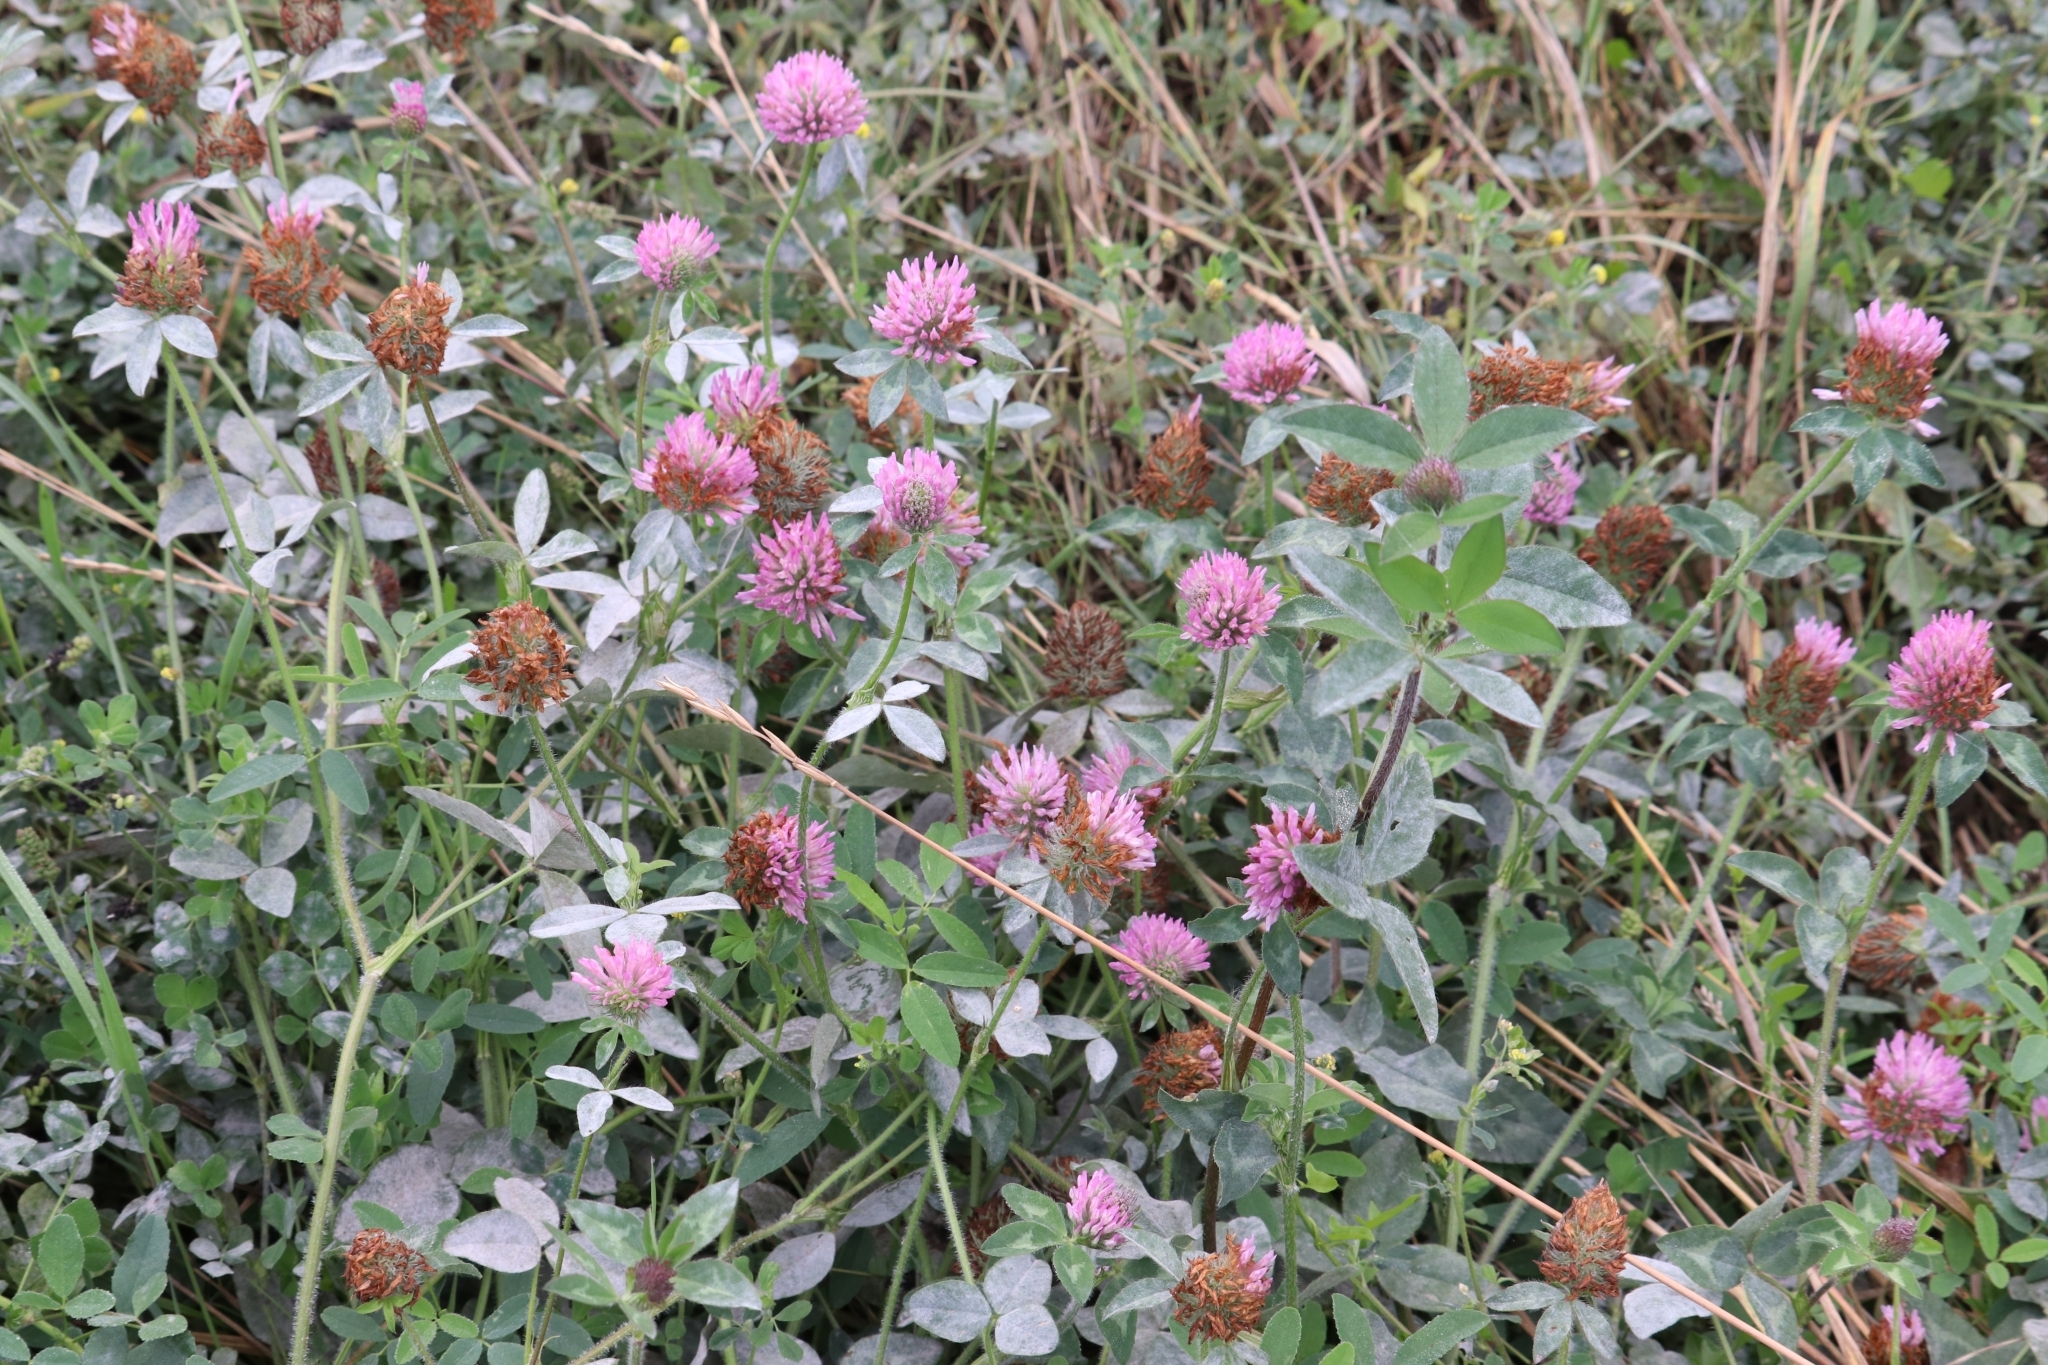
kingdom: Plantae
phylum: Tracheophyta
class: Magnoliopsida
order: Fabales
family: Fabaceae
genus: Trifolium
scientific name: Trifolium pratense
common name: Red clover
